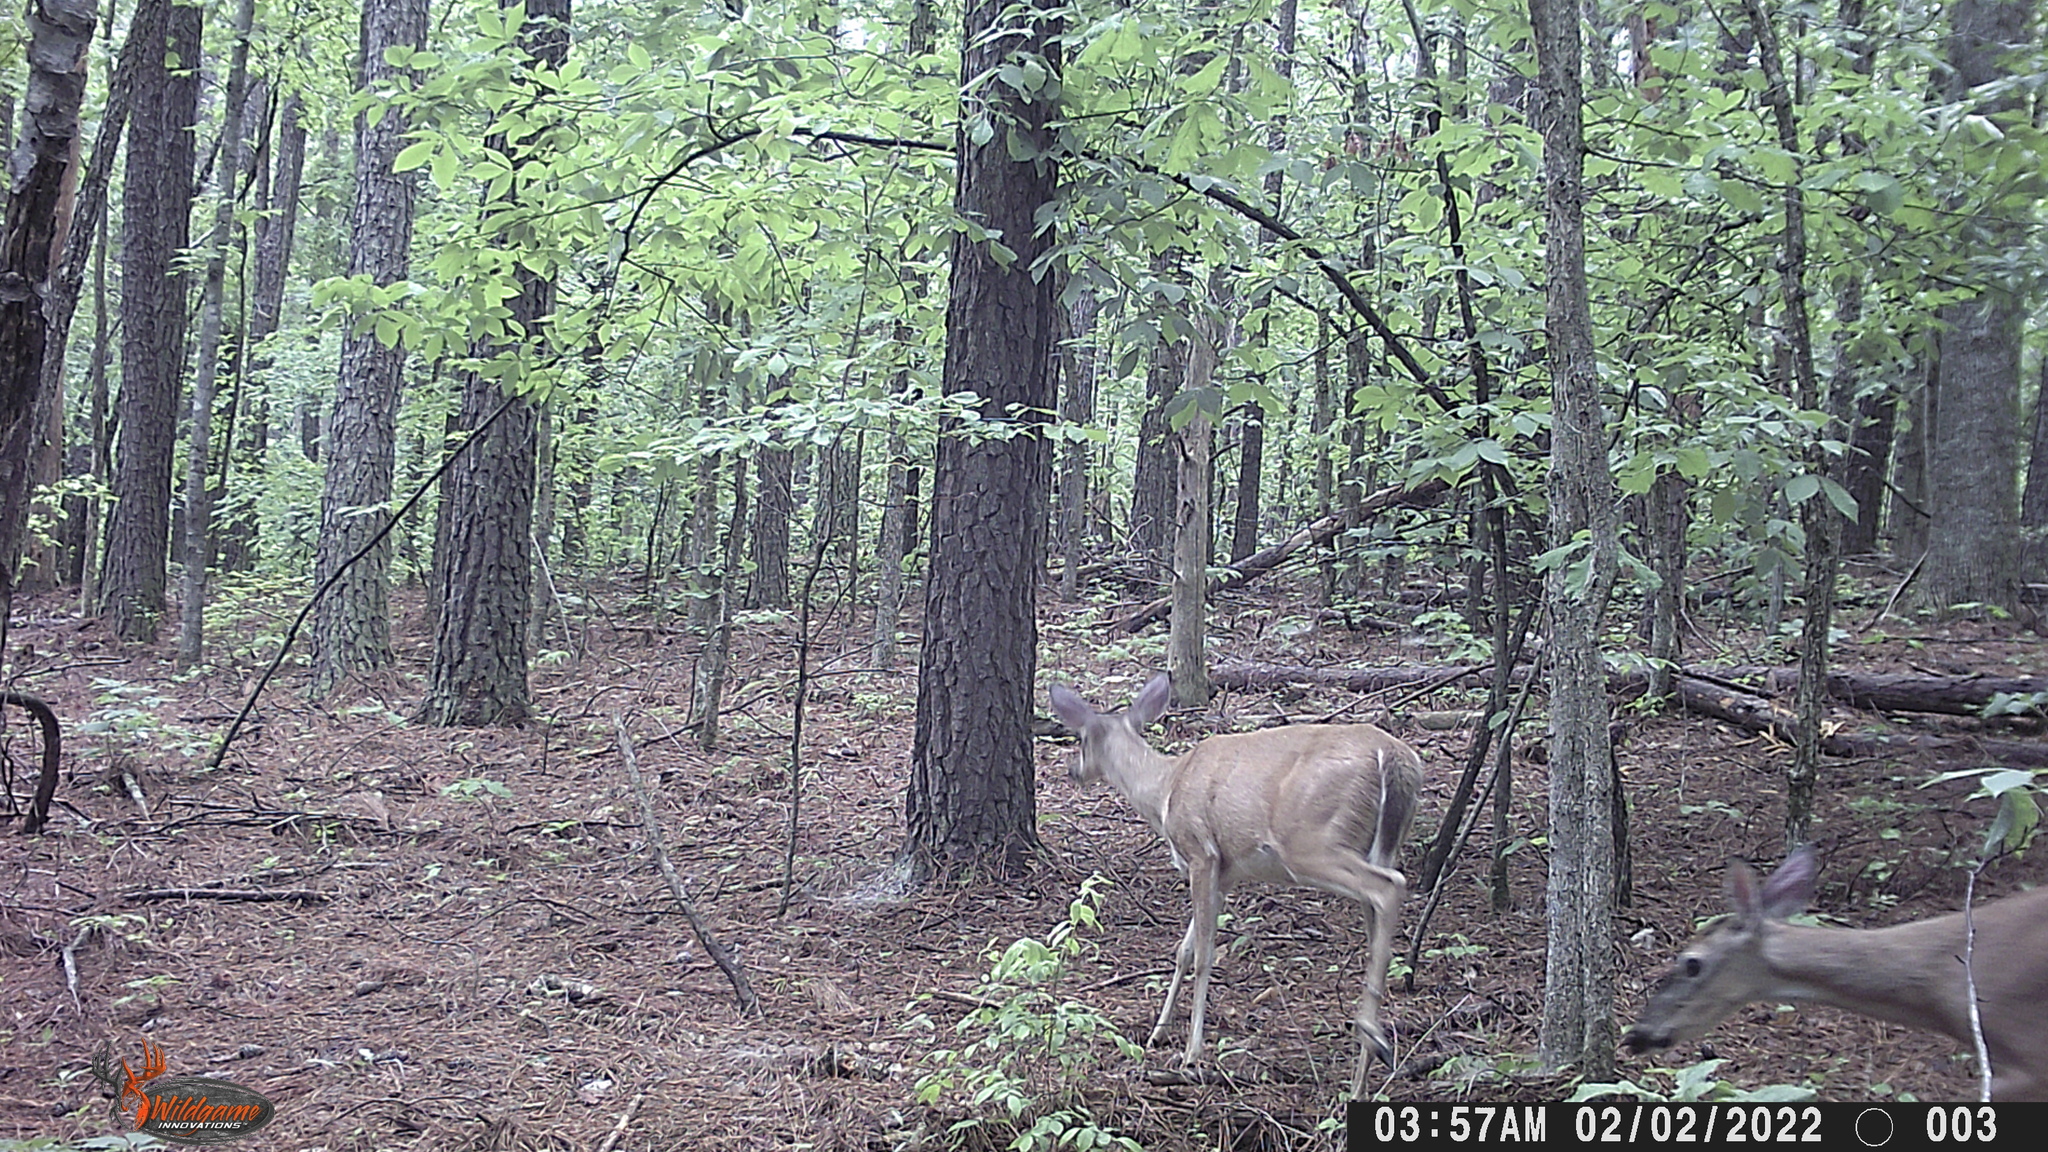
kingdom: Animalia
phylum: Chordata
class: Mammalia
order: Artiodactyla
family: Cervidae
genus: Odocoileus
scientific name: Odocoileus virginianus
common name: White-tailed deer
